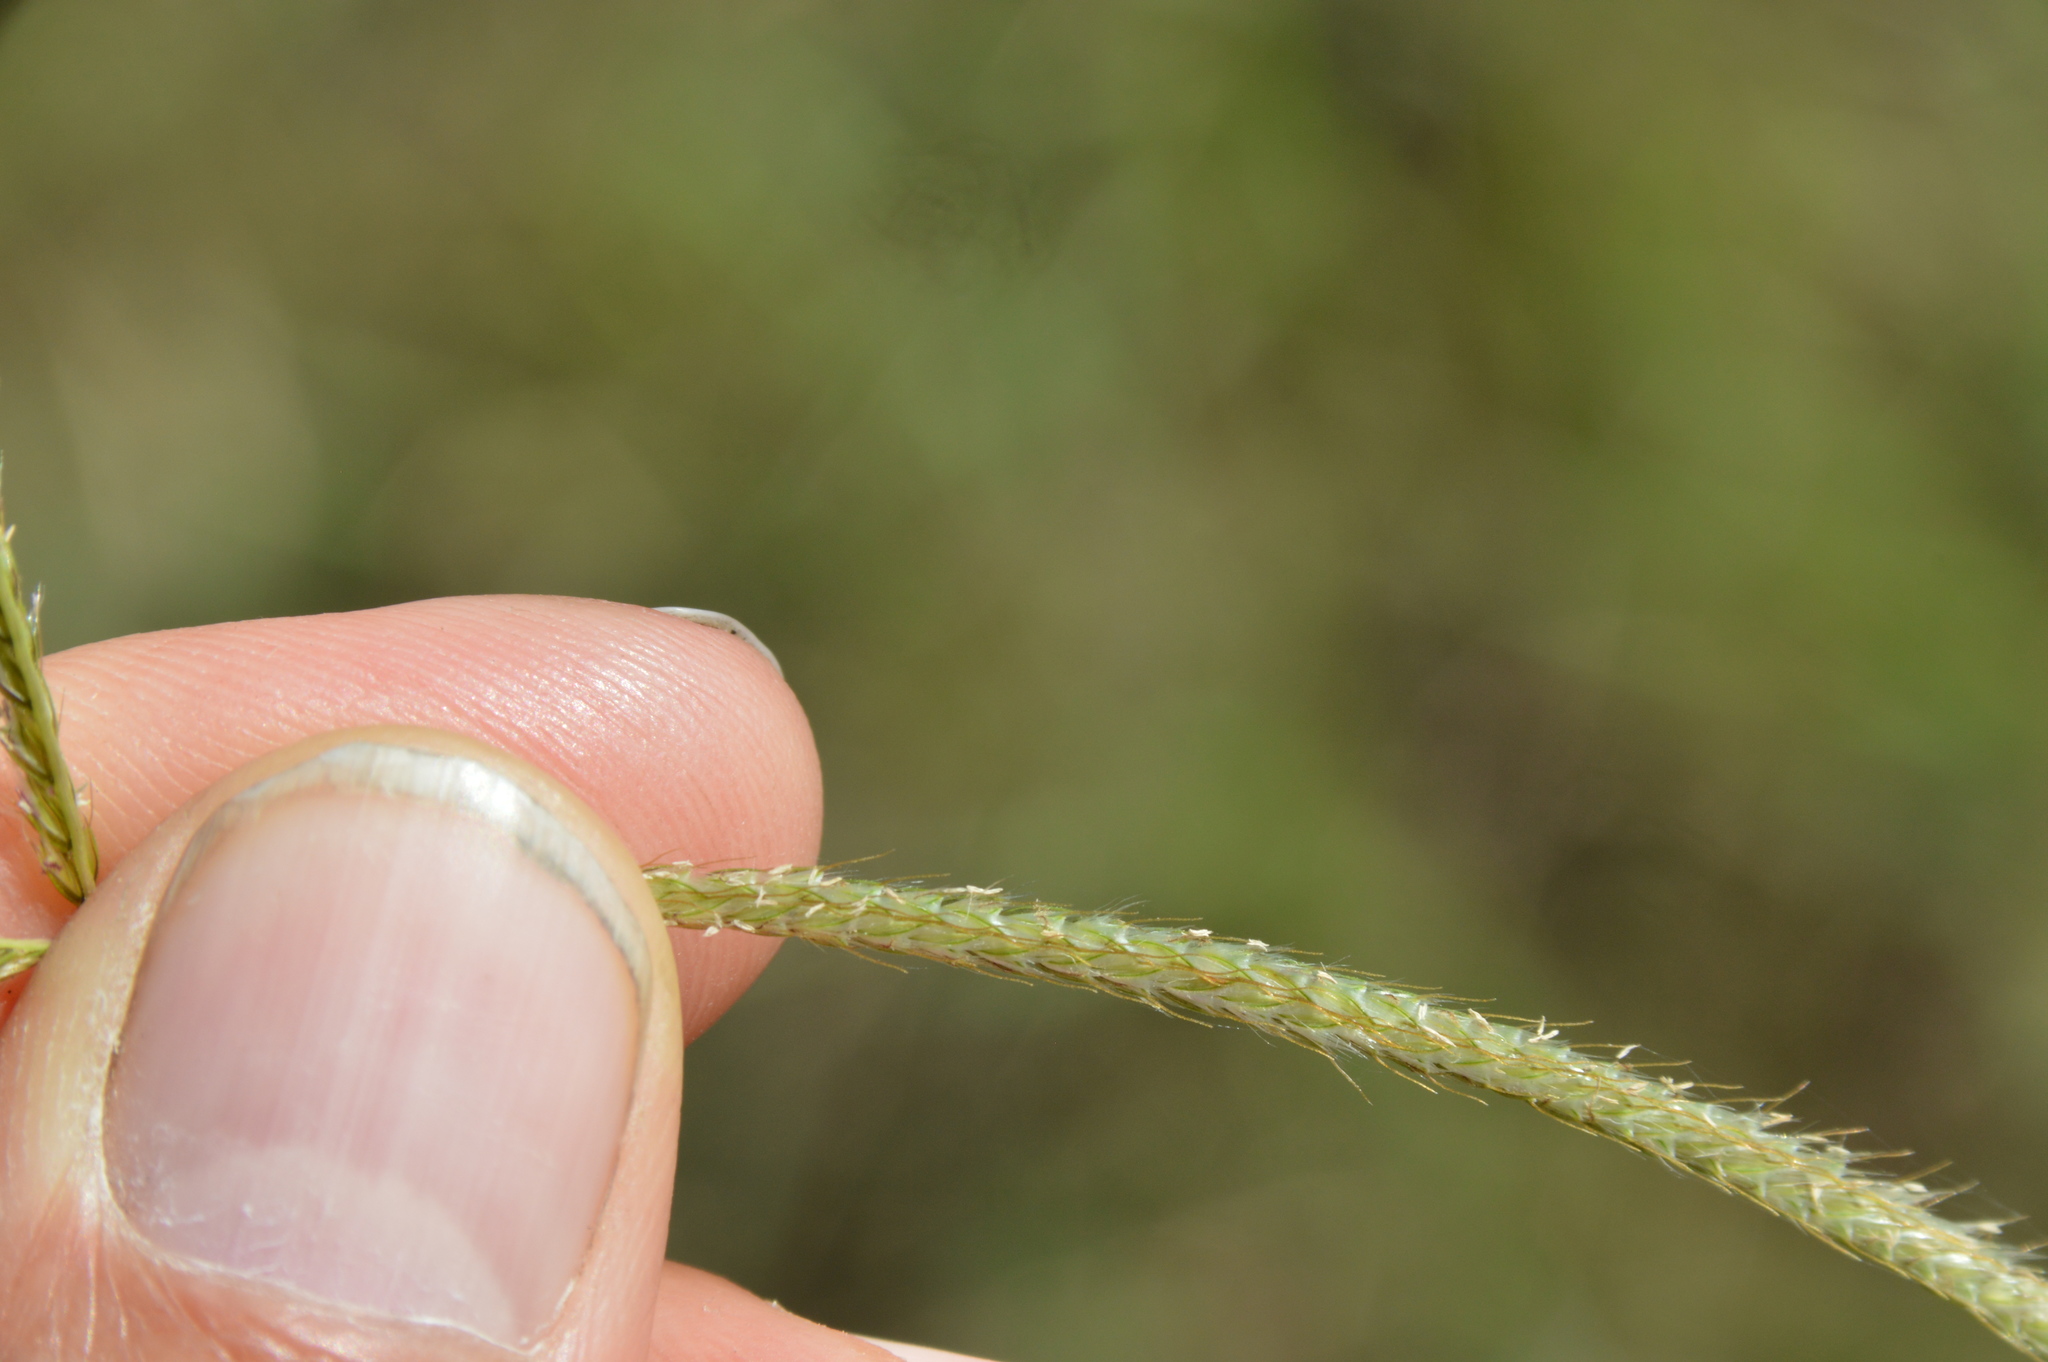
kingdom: Plantae
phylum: Tracheophyta
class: Liliopsida
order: Poales
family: Poaceae
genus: Stapfochloa
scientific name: Stapfochloa canterae
